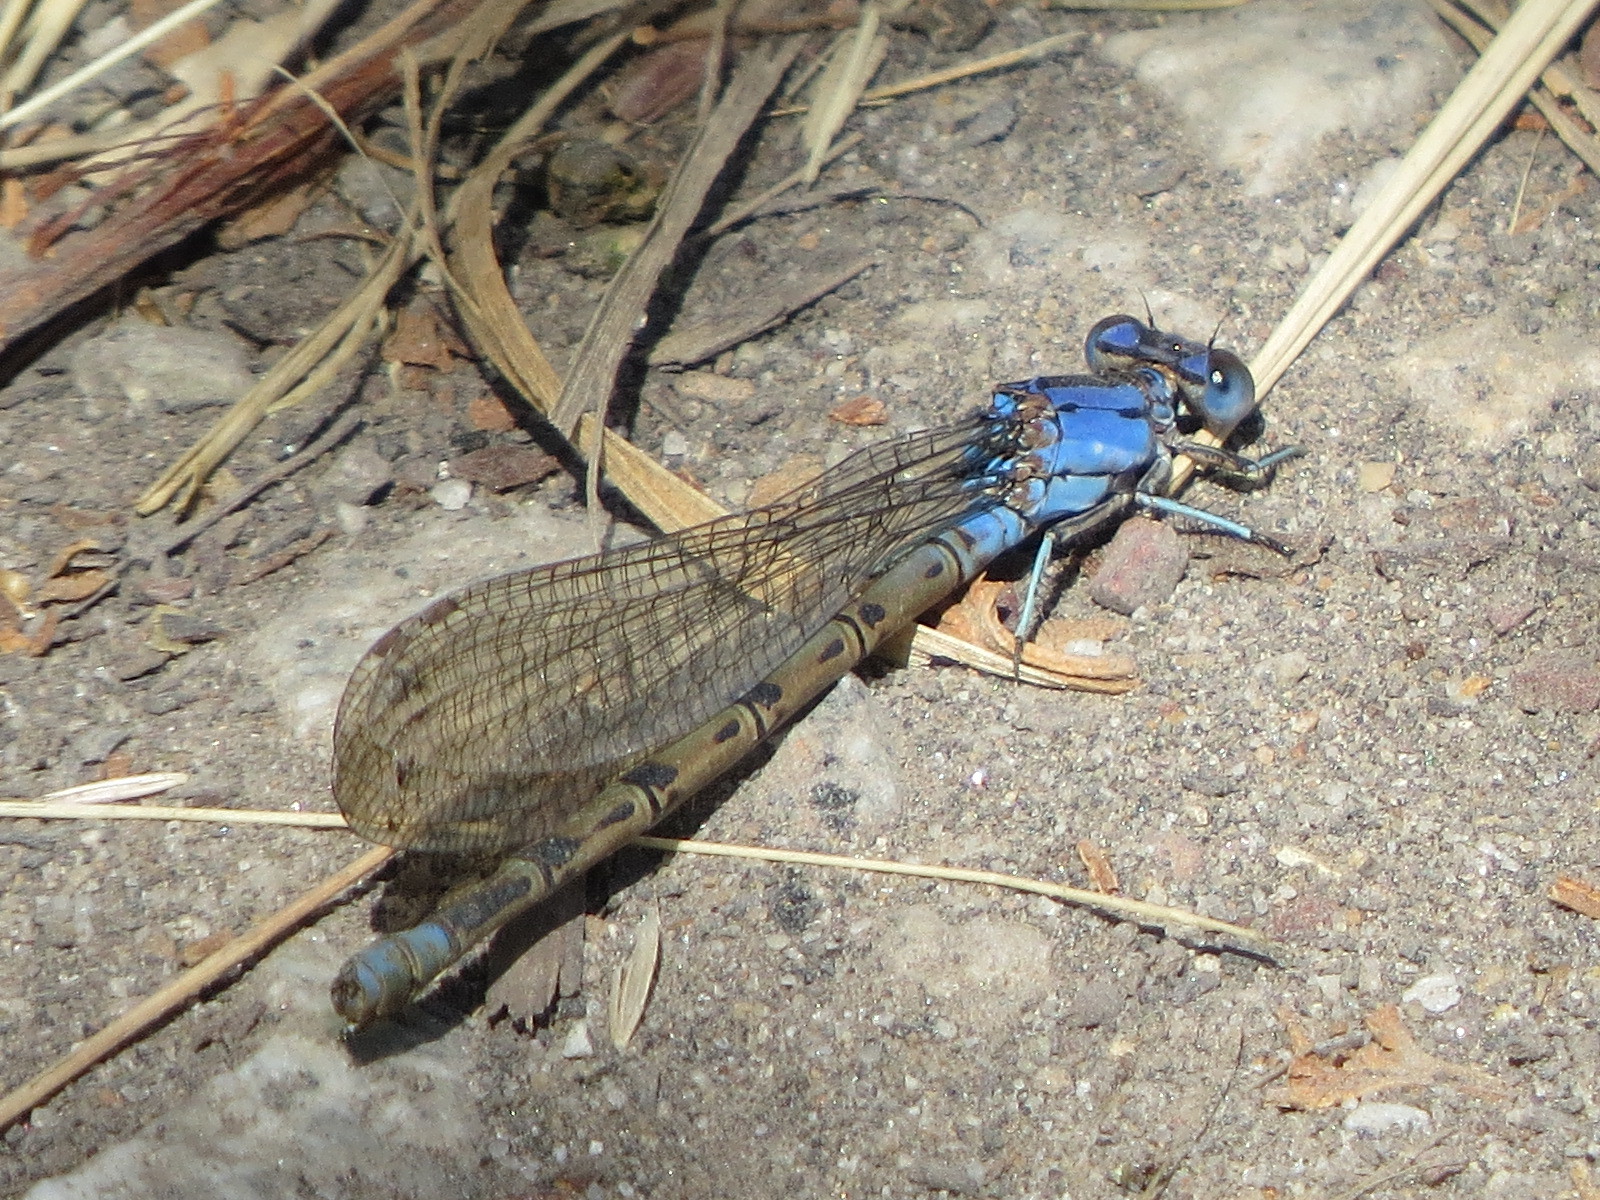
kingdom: Animalia
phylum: Arthropoda
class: Insecta
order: Odonata
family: Coenagrionidae
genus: Argia
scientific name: Argia vivida
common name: Vivid dancer
